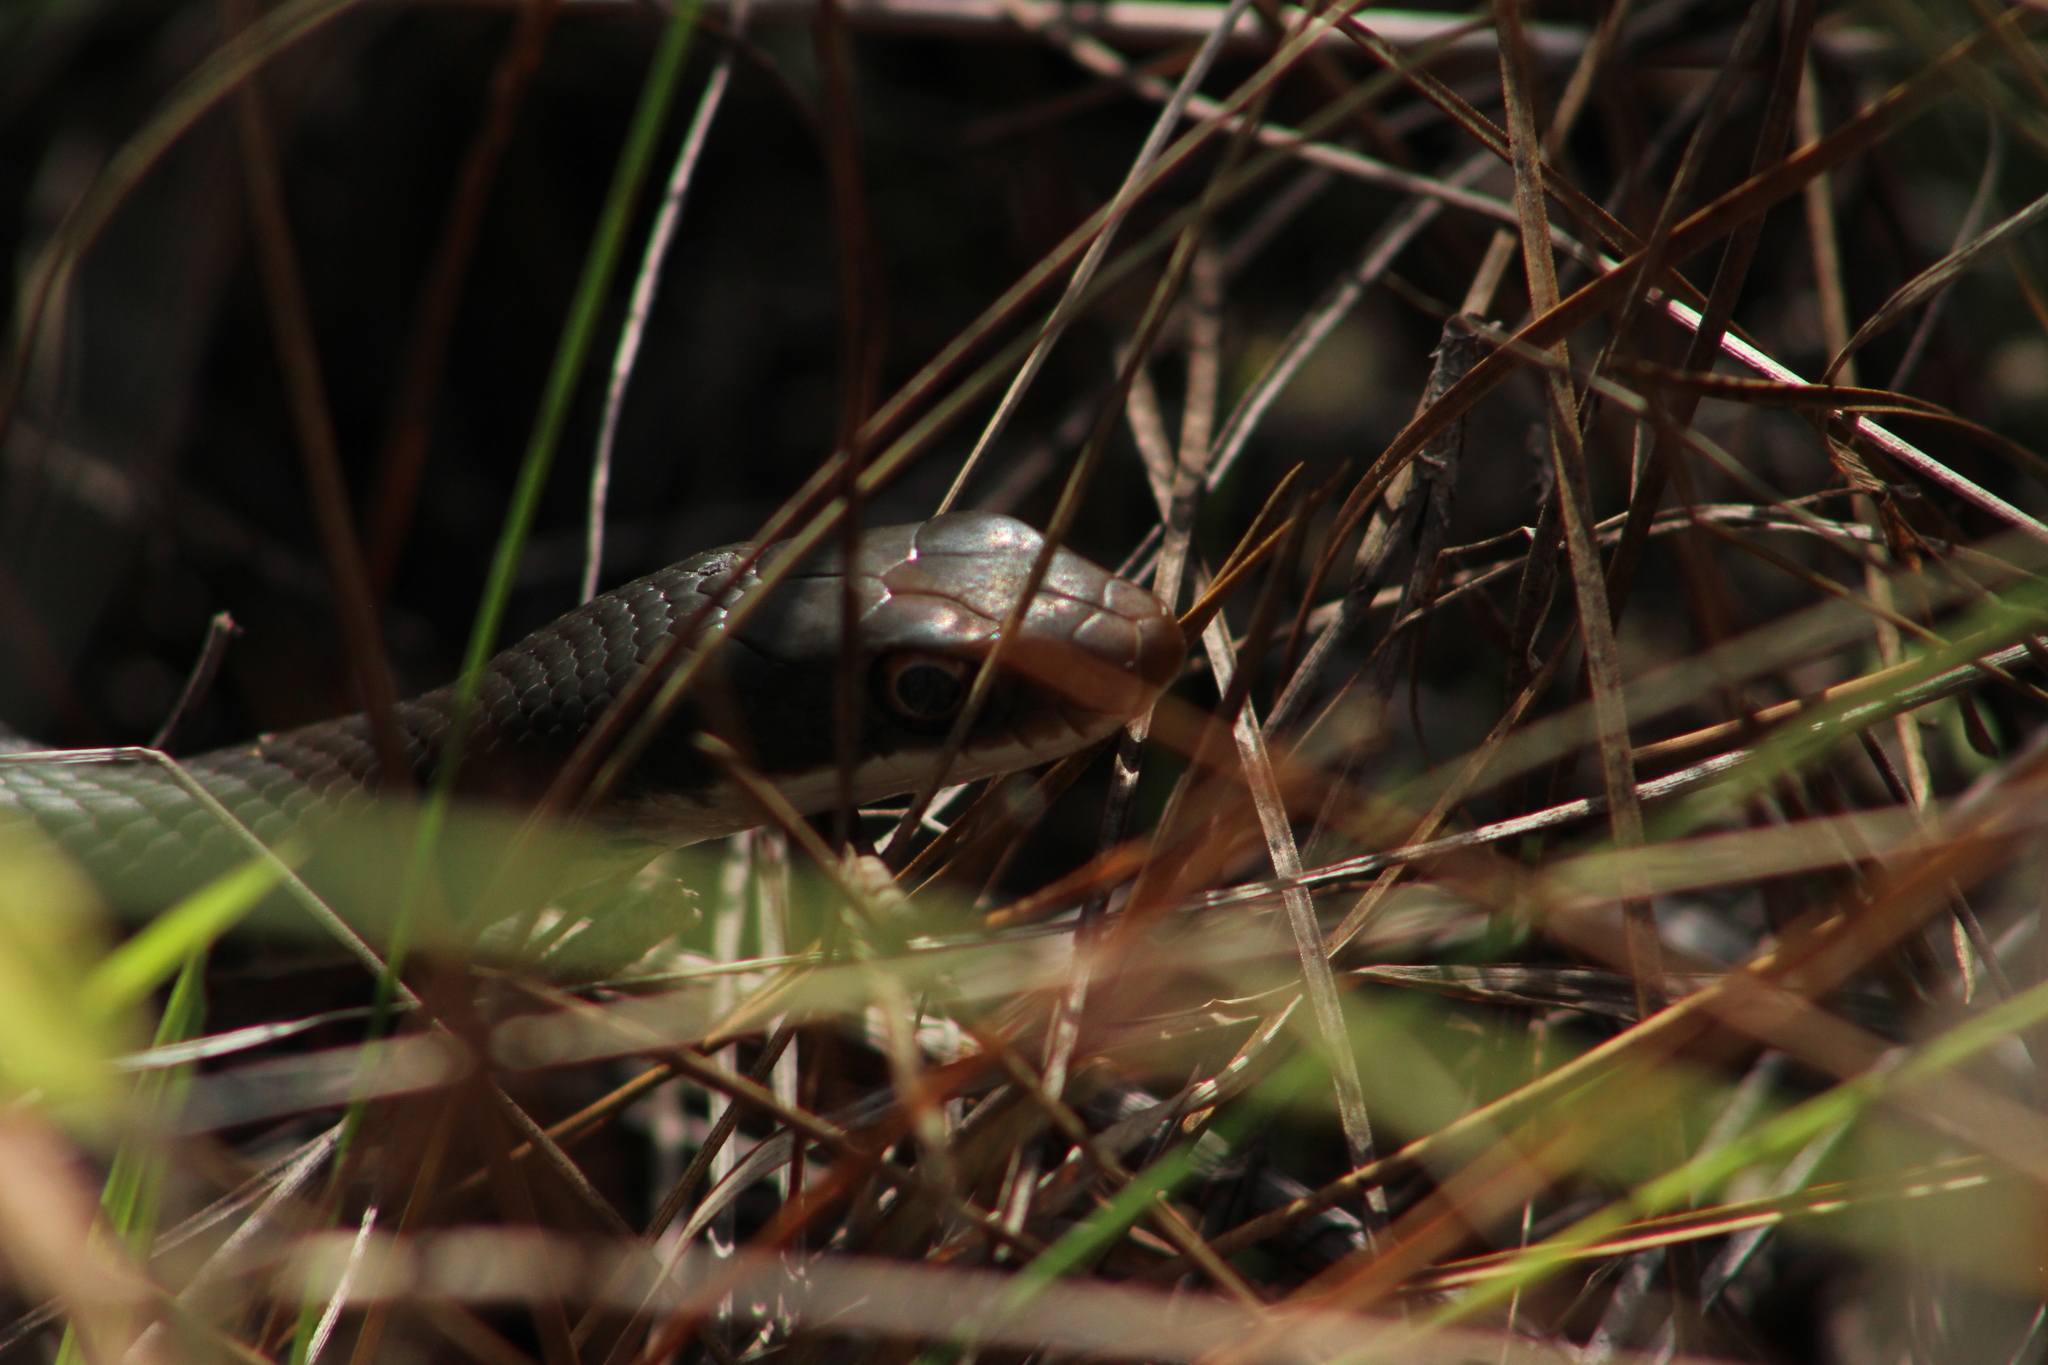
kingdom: Animalia
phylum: Chordata
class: Squamata
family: Colubridae
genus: Coluber
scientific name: Coluber constrictor
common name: Eastern racer
